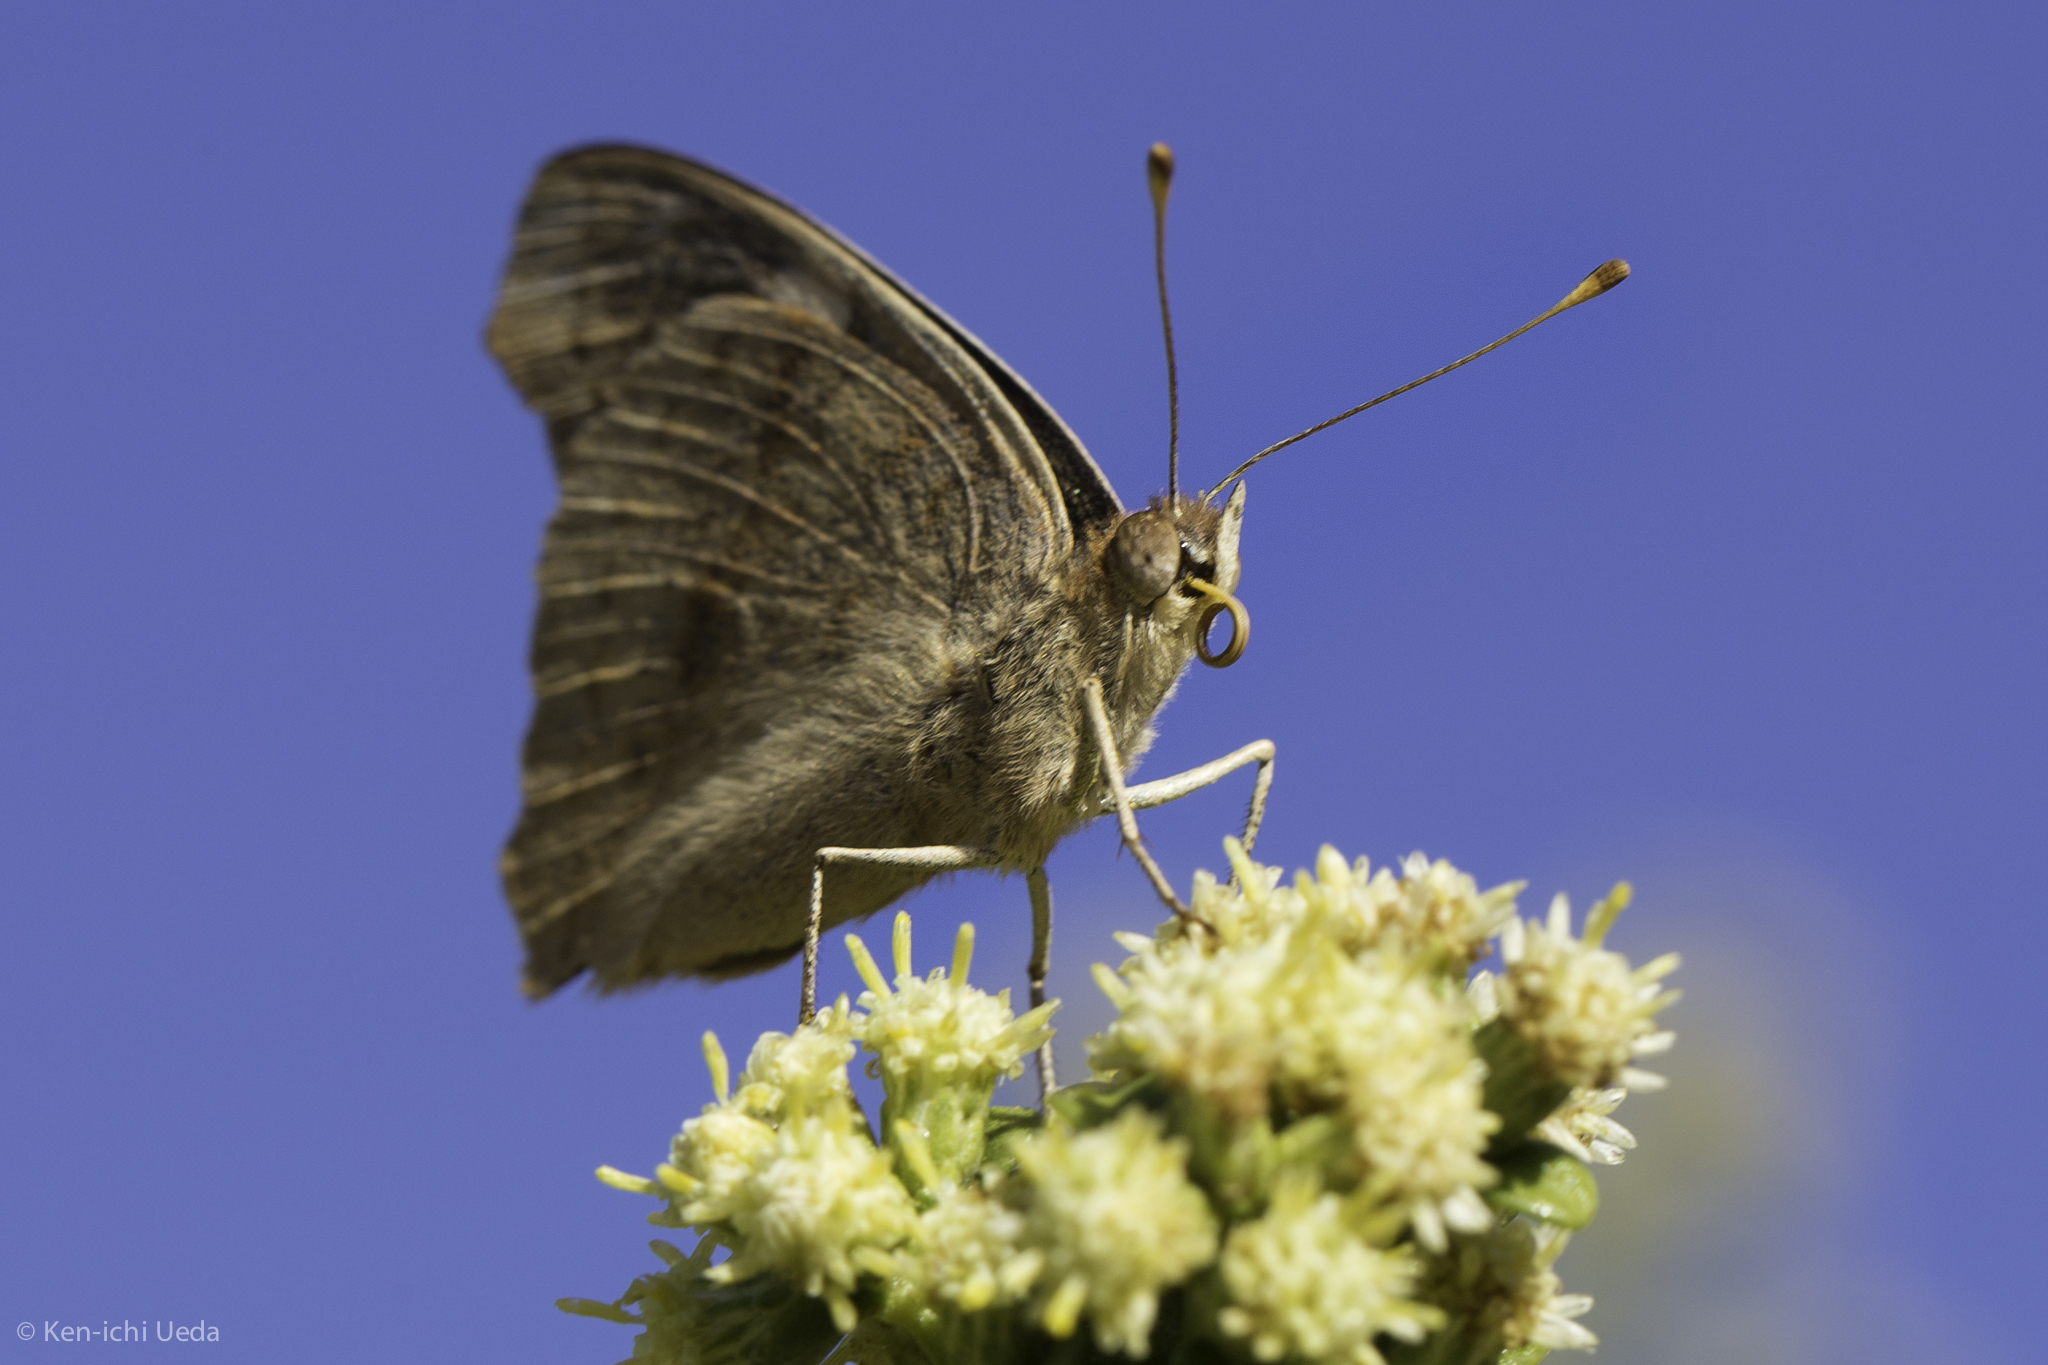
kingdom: Animalia
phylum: Arthropoda
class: Insecta
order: Lepidoptera
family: Nymphalidae
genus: Junonia
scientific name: Junonia grisea
